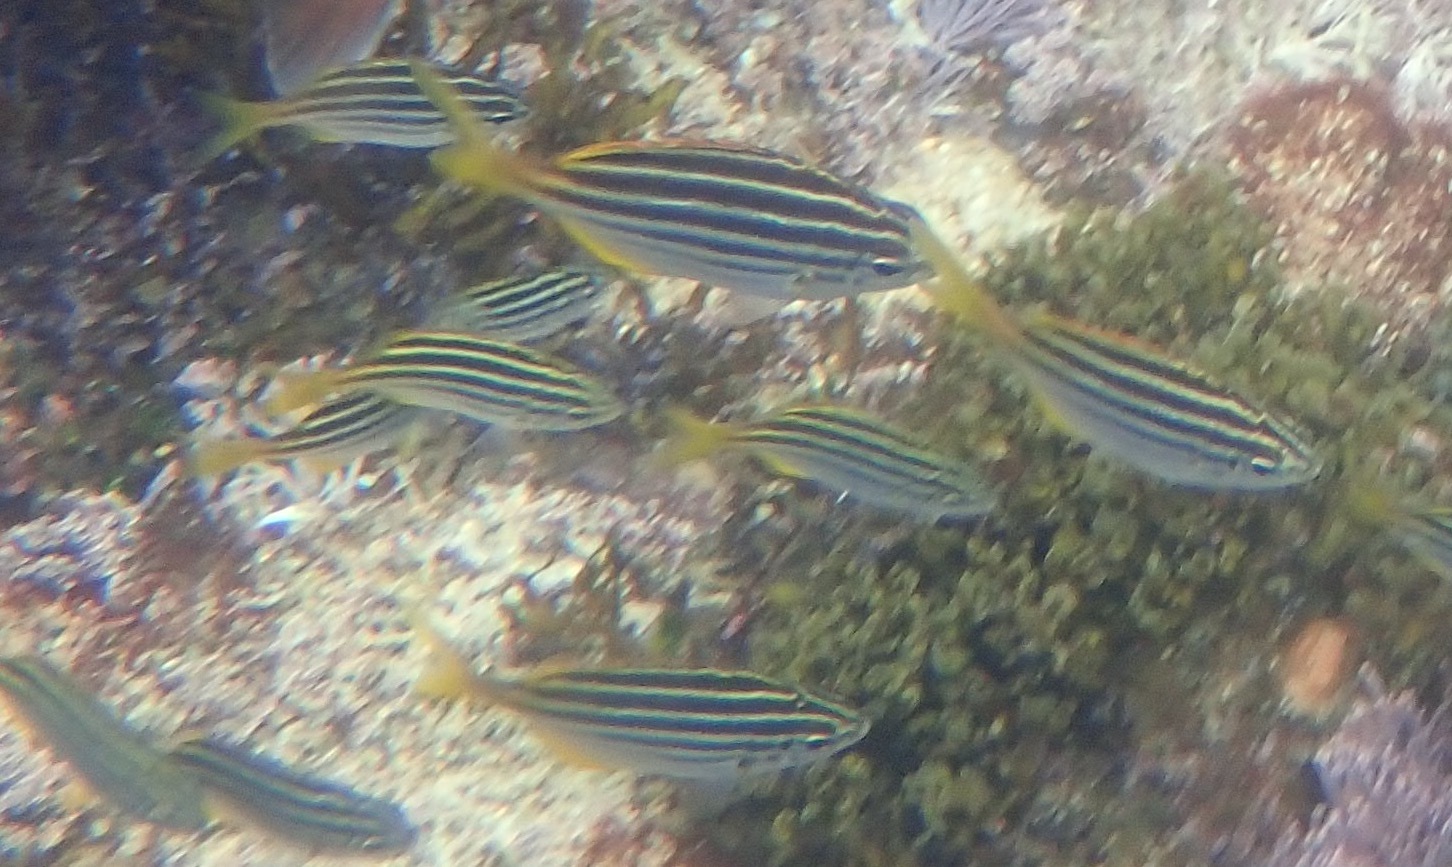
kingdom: Animalia
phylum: Chordata
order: Perciformes
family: Kyphosidae
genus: Atypichthys
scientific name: Atypichthys strigatus
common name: Australian mado
